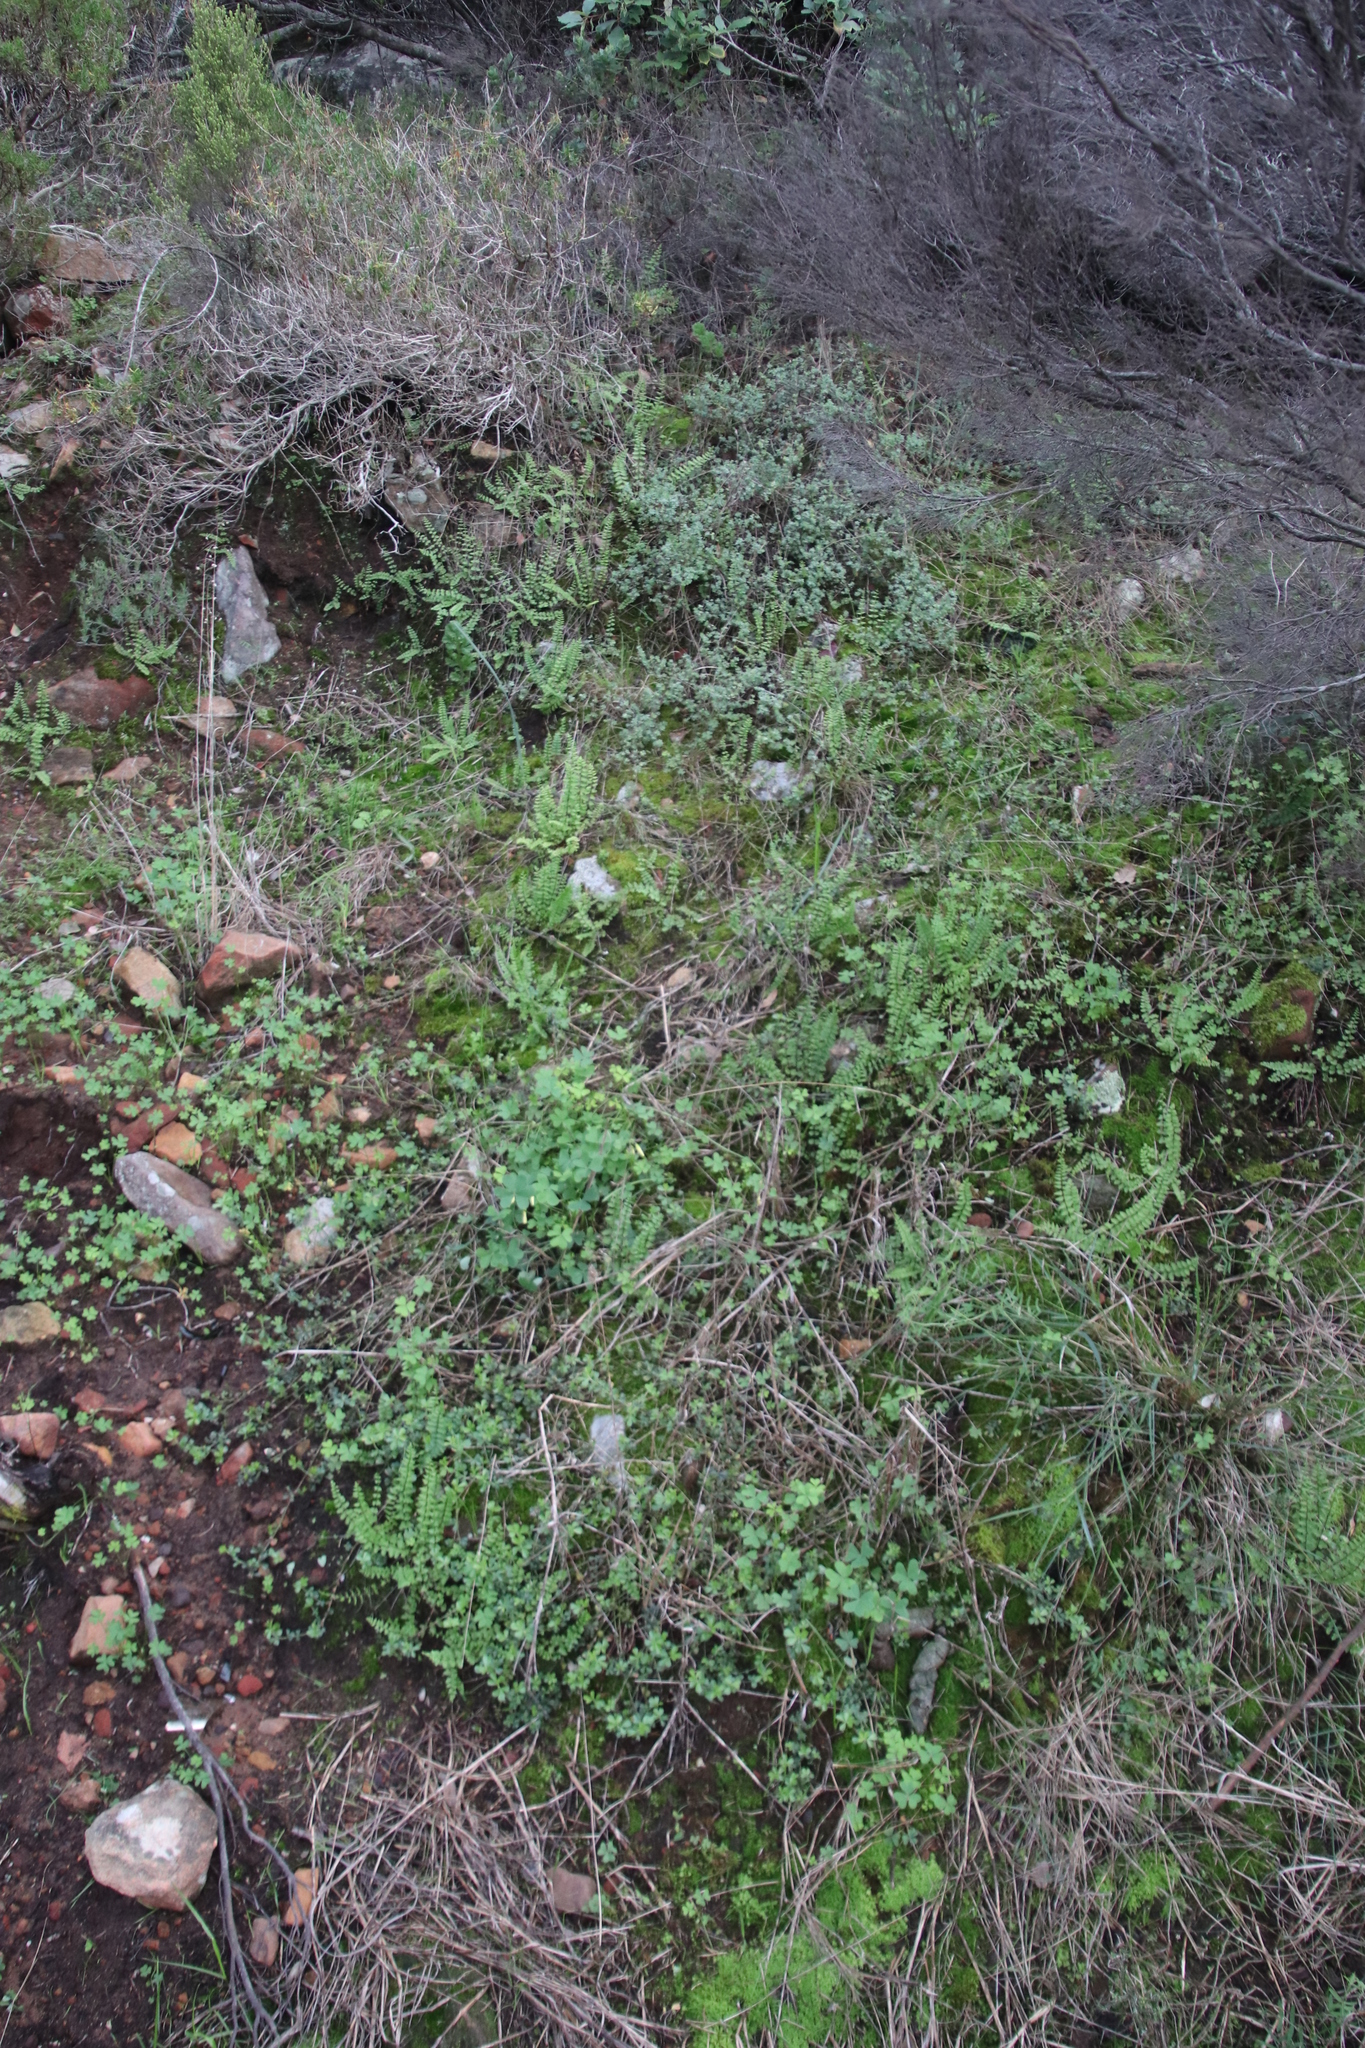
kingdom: Plantae
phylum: Tracheophyta
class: Polypodiopsida
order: Polypodiales
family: Pteridaceae
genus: Cheilanthes
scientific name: Cheilanthes hastata
